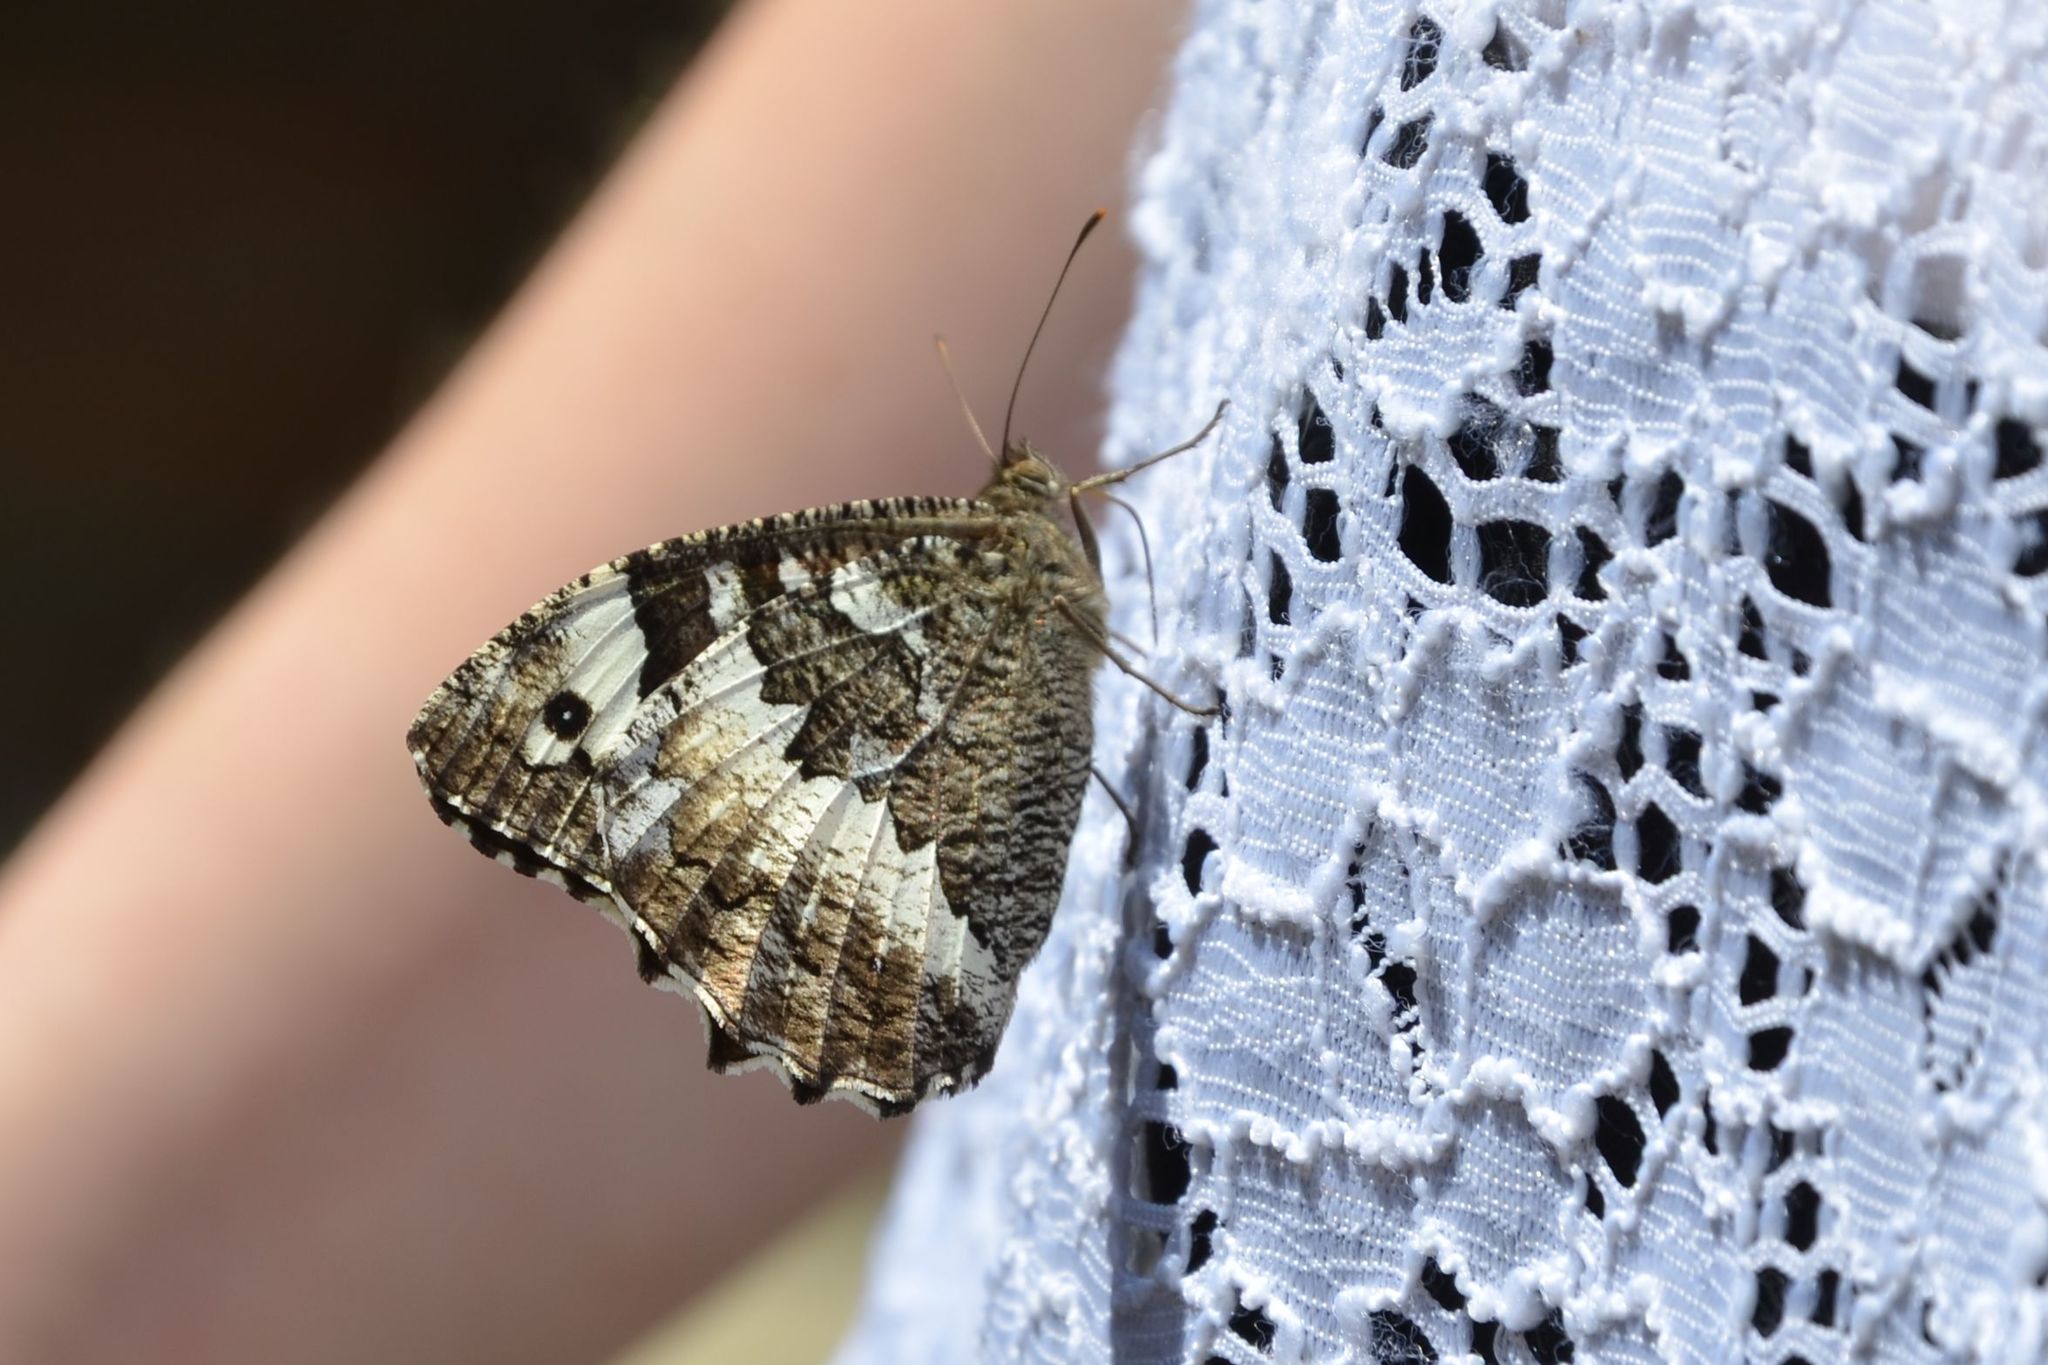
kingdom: Animalia
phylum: Arthropoda
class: Insecta
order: Lepidoptera
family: Lycaenidae
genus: Loweia
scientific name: Loweia tityrus
